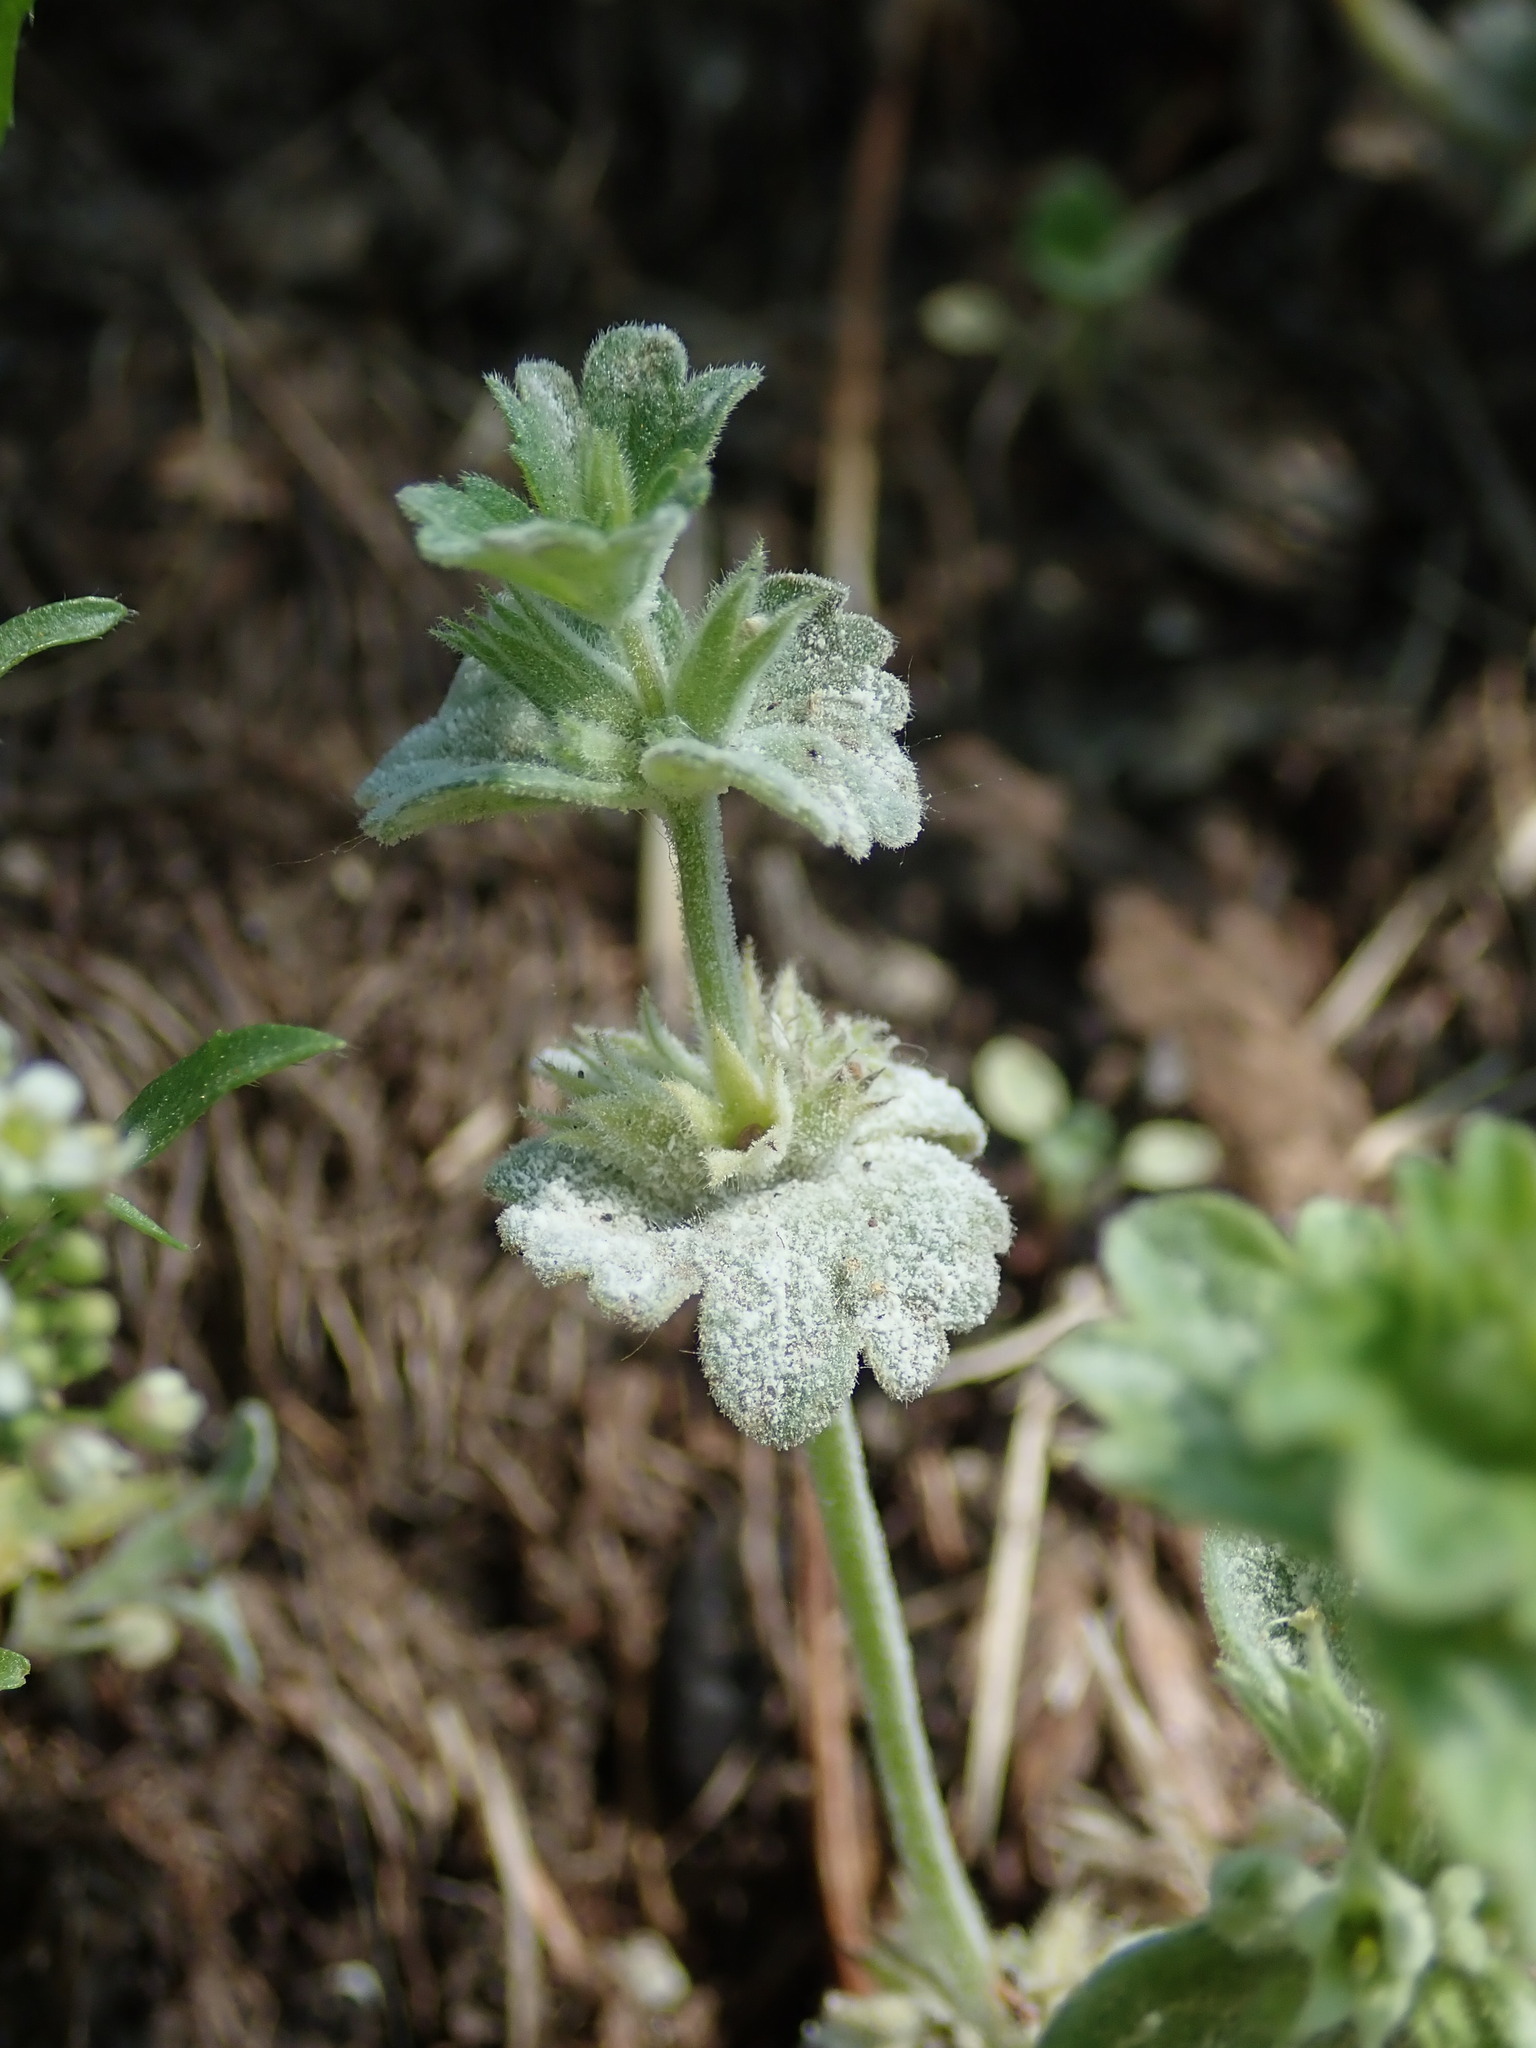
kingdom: Plantae
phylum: Tracheophyta
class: Magnoliopsida
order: Lamiales
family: Lamiaceae
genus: Lamium
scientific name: Lamium amplexicaule
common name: Henbit dead-nettle
